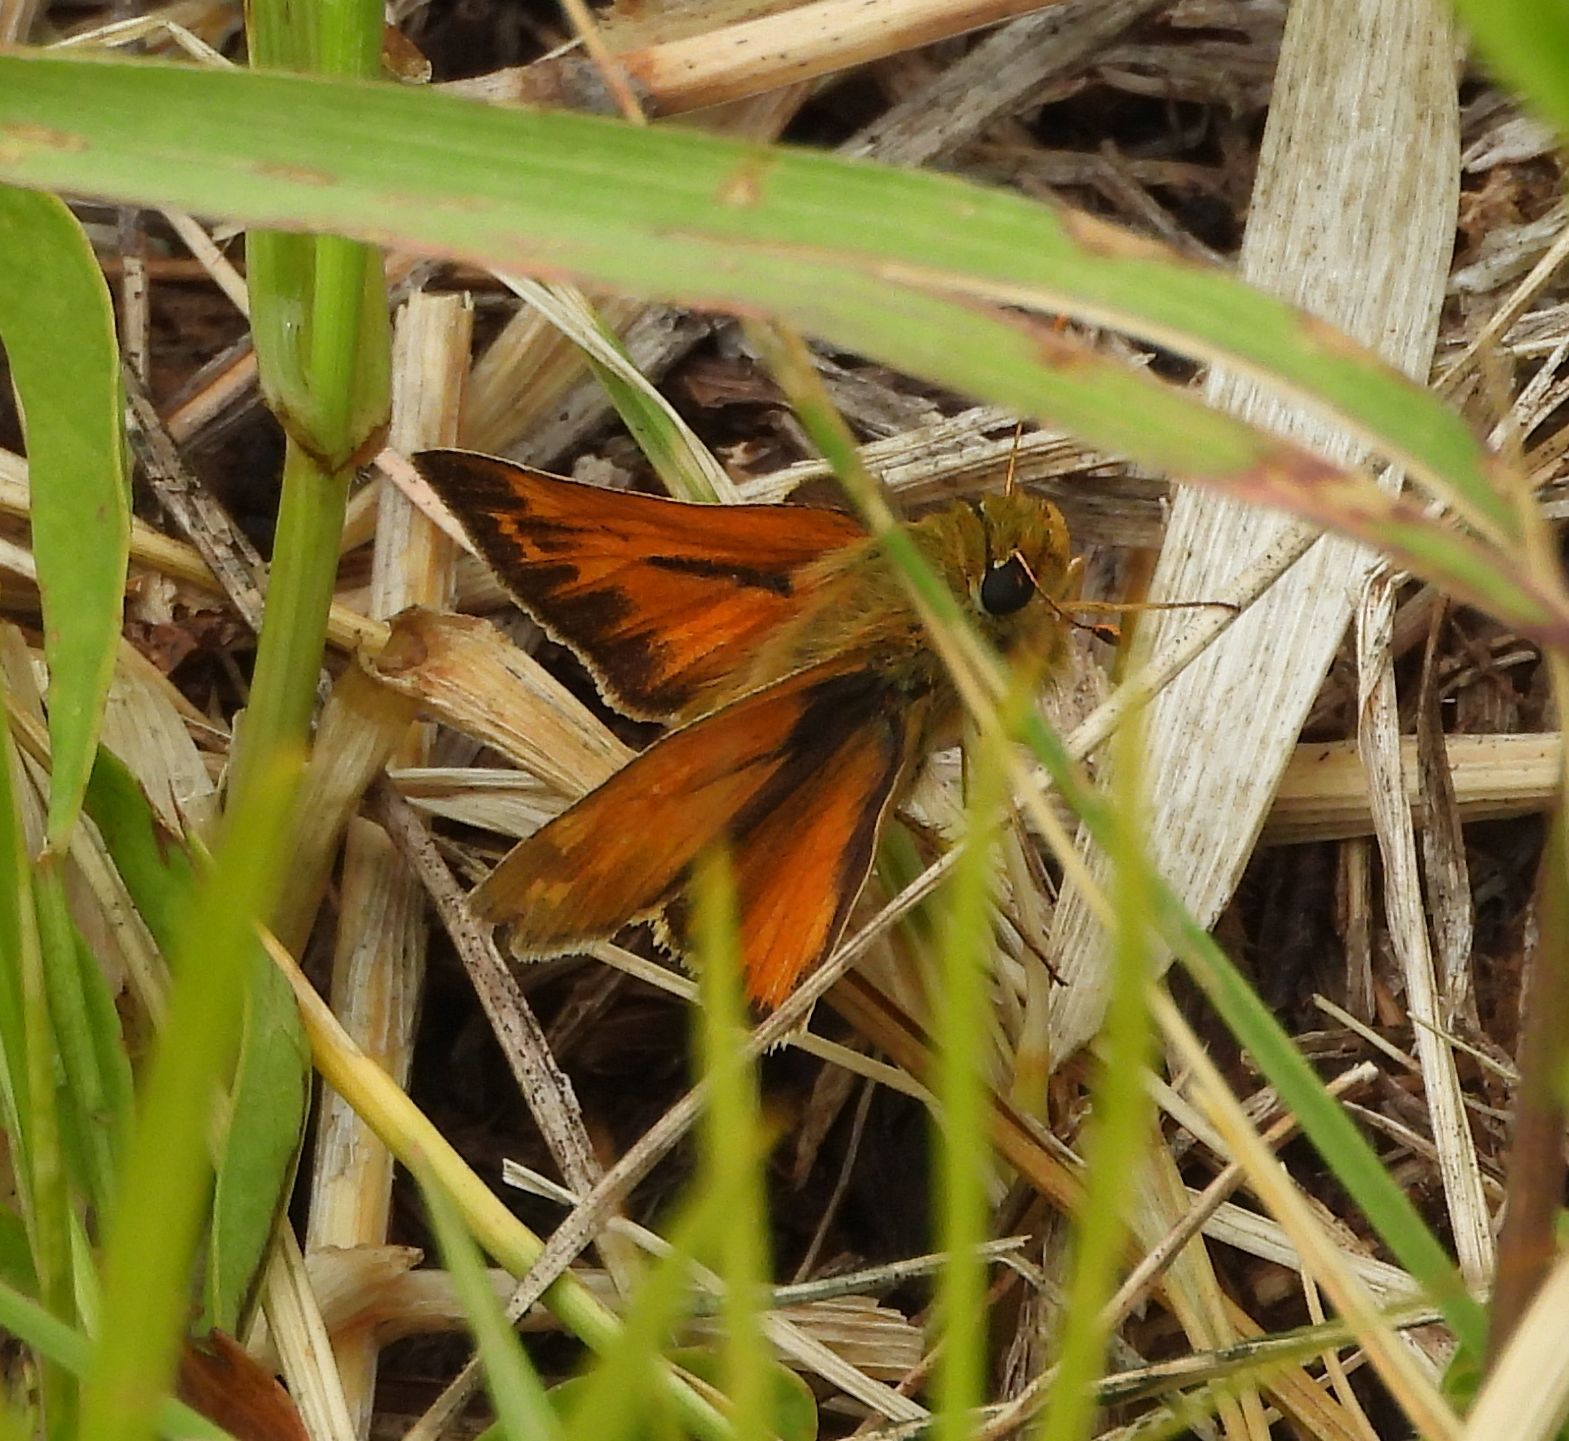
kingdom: Animalia
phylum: Arthropoda
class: Insecta
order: Lepidoptera
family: Hesperiidae
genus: Hesperia
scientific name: Hesperia sassacus
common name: Indian skipper
